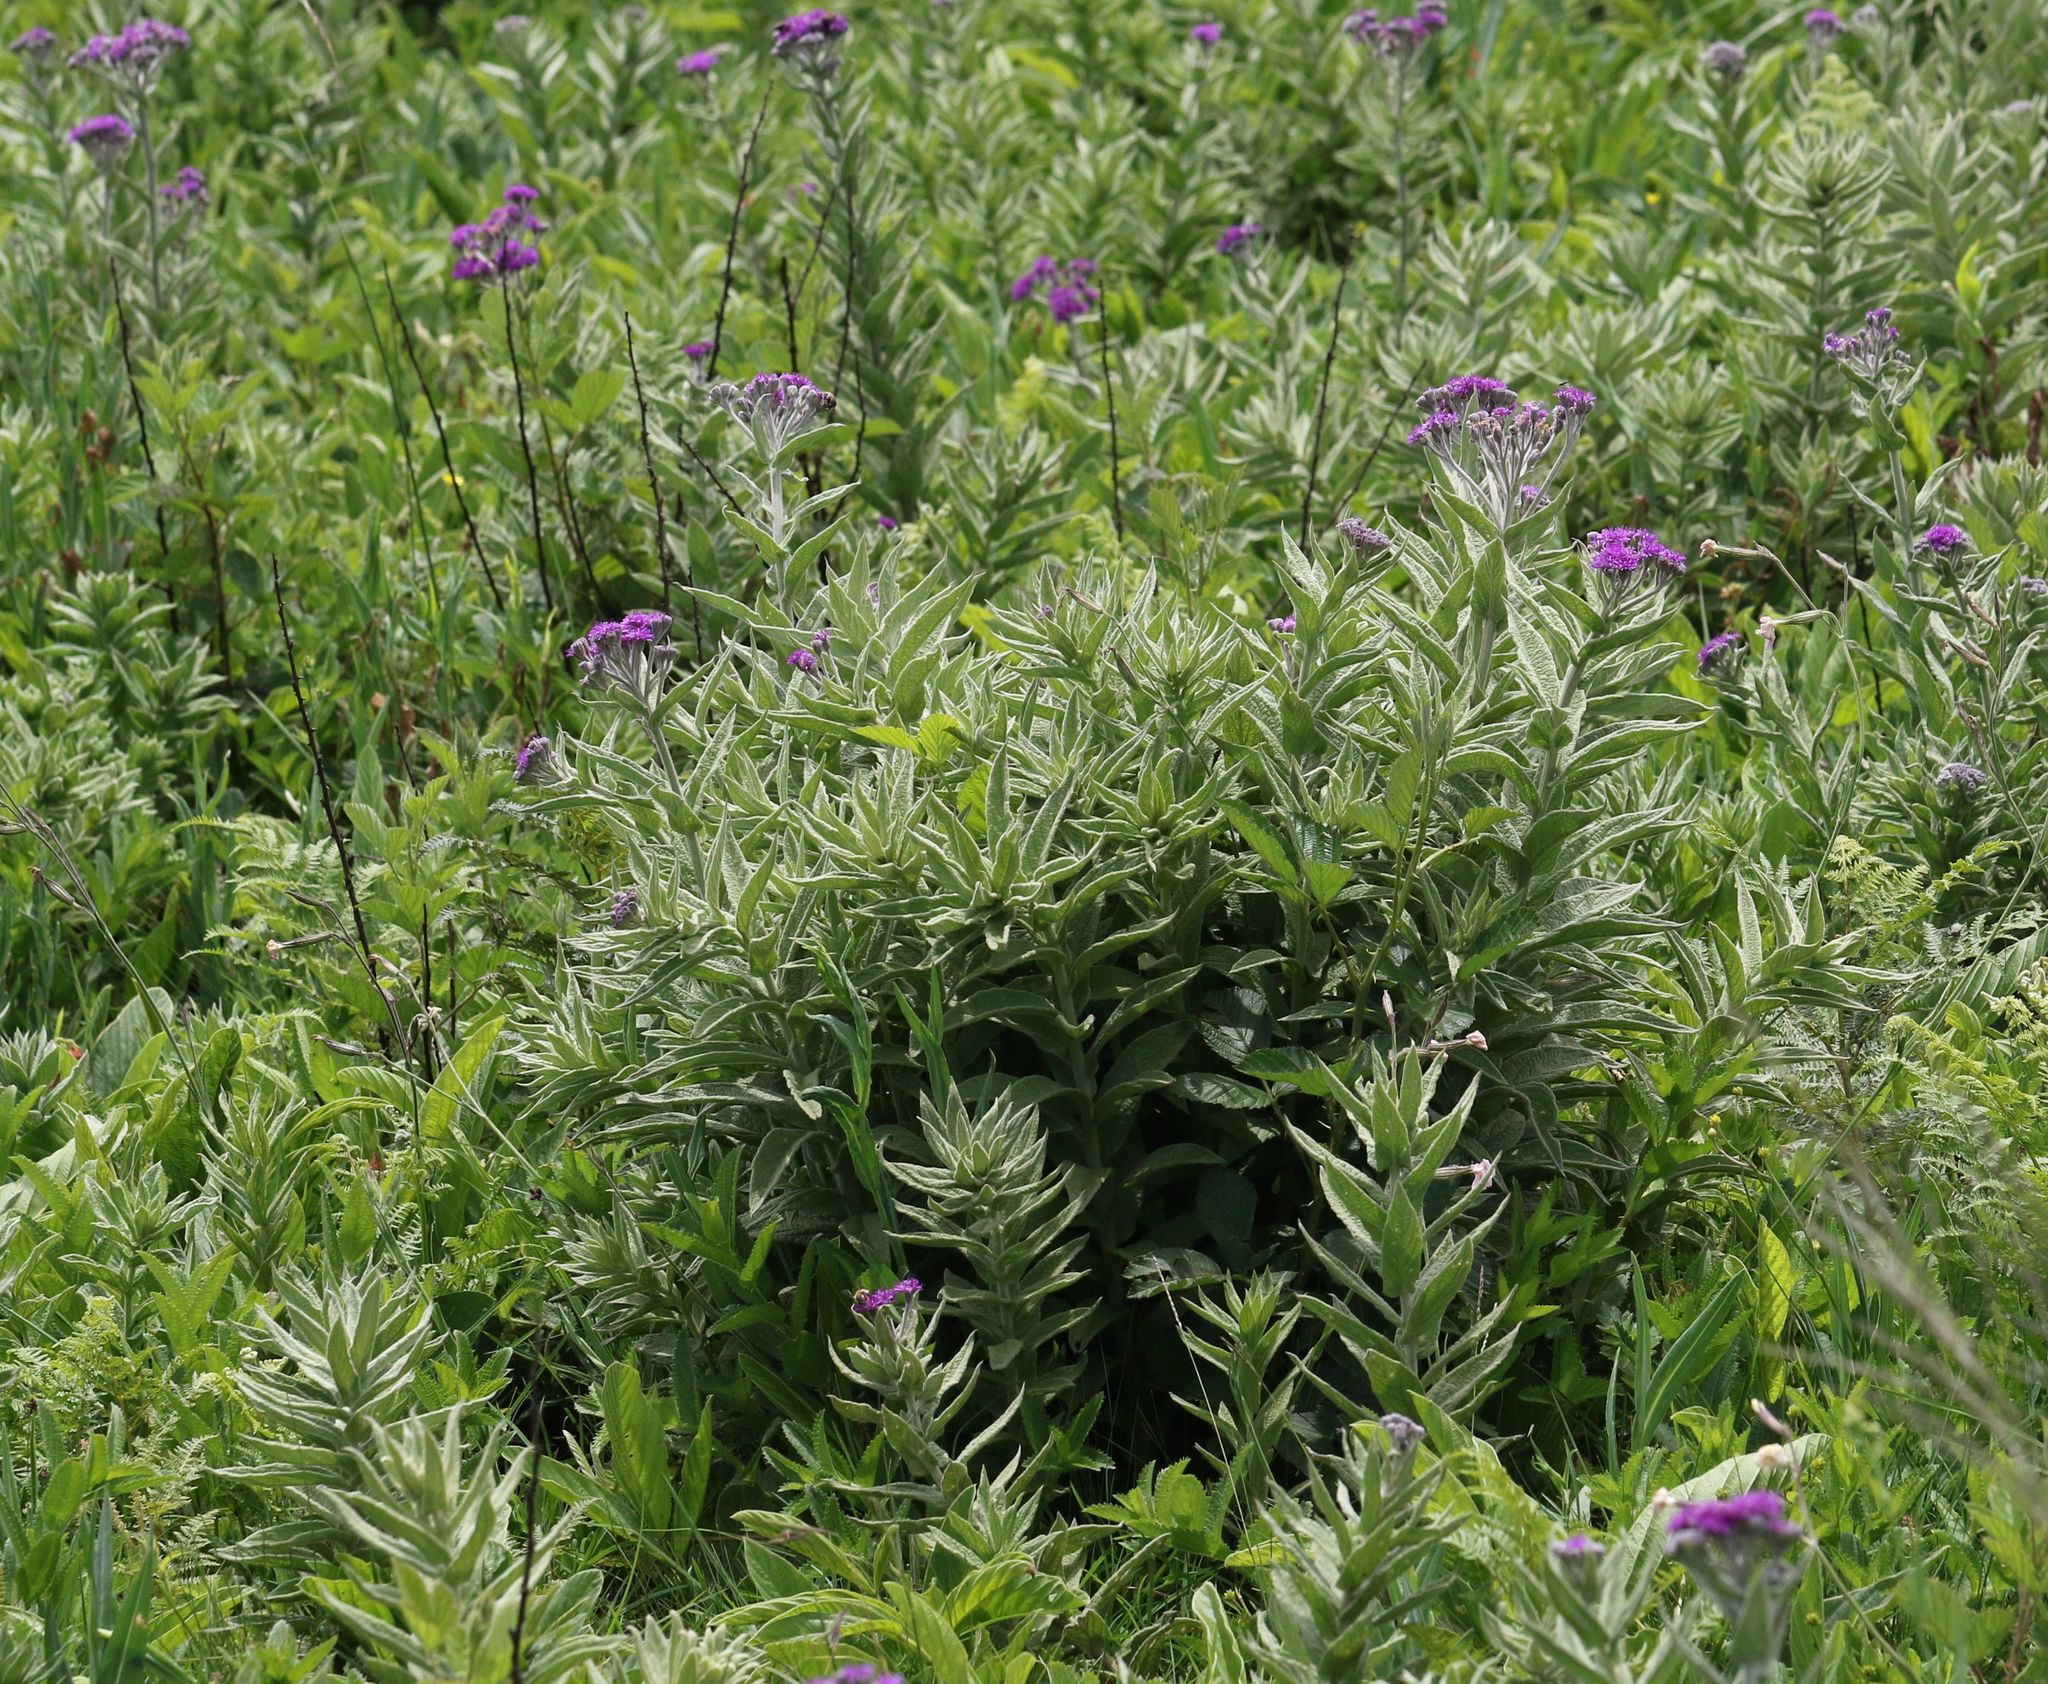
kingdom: Plantae
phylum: Tracheophyta
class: Magnoliopsida
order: Asterales
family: Asteraceae
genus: Hilliardiella
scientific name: Hilliardiella aristata
